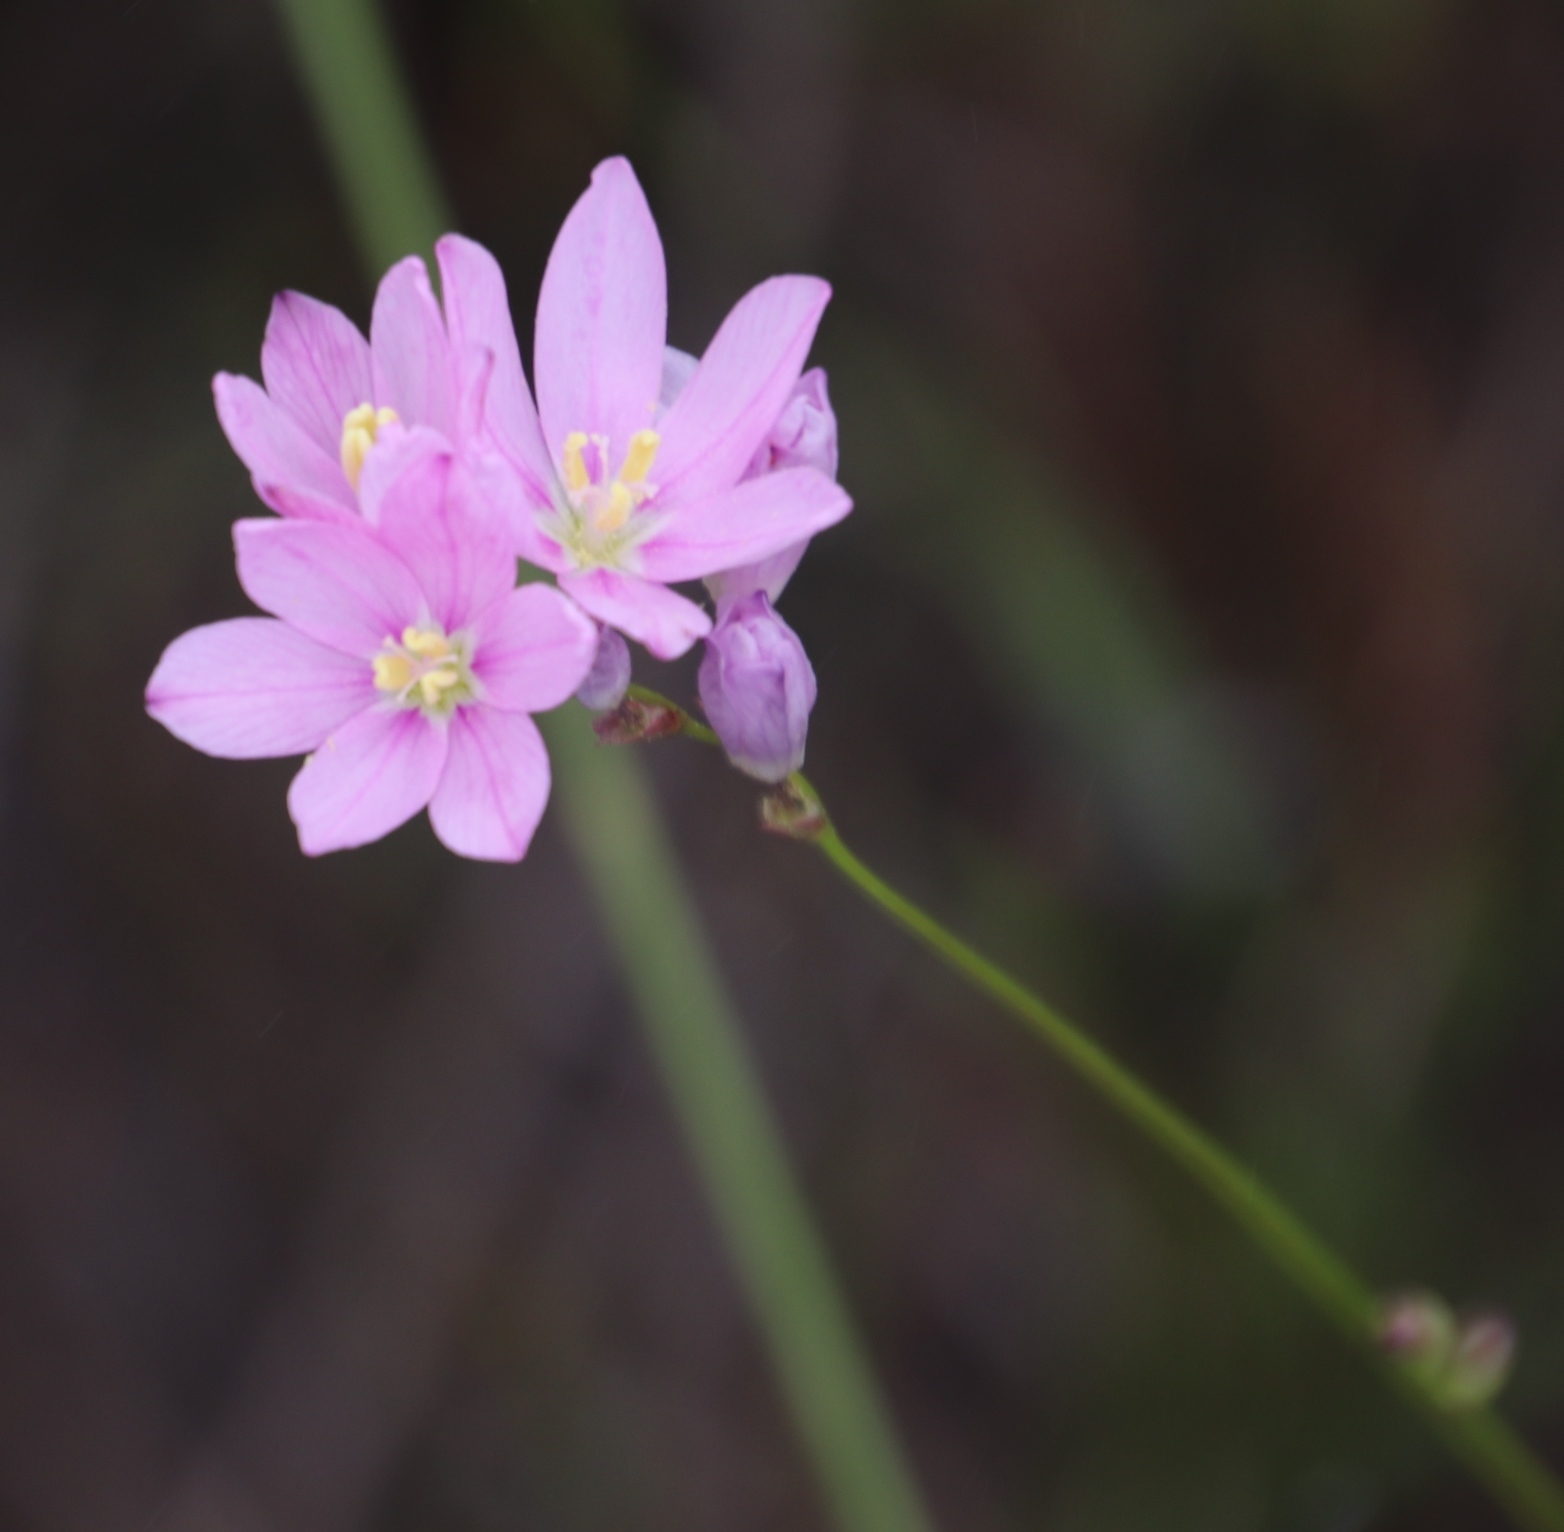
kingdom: Plantae
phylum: Tracheophyta
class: Liliopsida
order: Asparagales
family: Iridaceae
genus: Ixia
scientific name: Ixia flexuosa
